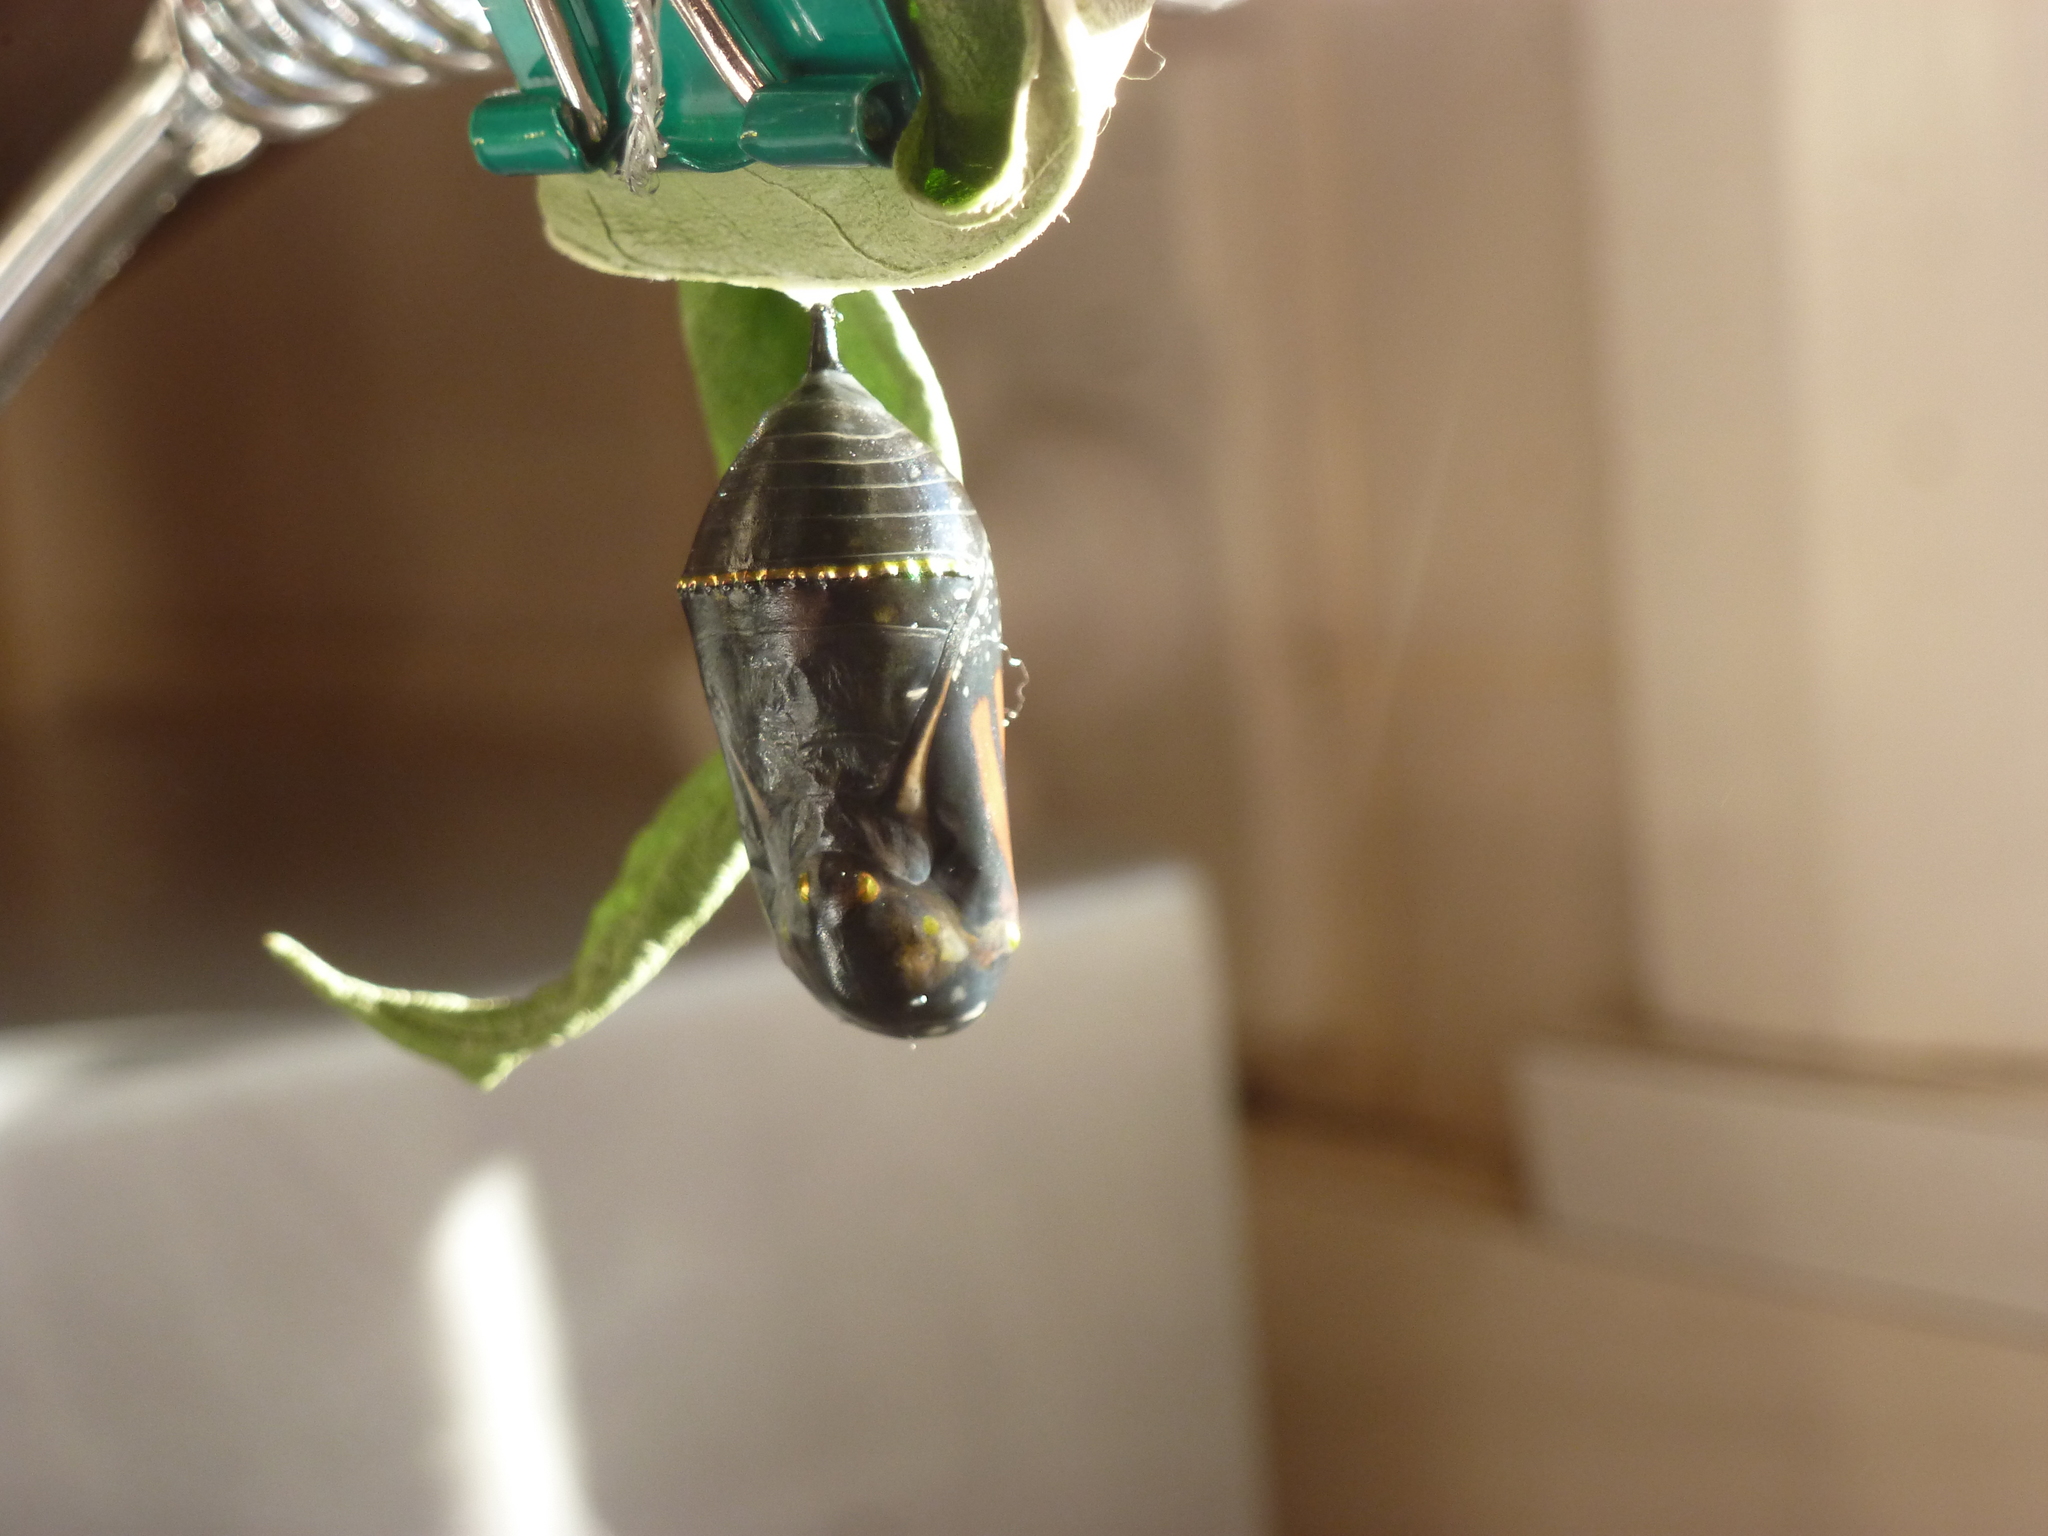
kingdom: Animalia
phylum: Arthropoda
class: Insecta
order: Lepidoptera
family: Nymphalidae
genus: Danaus
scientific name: Danaus plexippus
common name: Monarch
